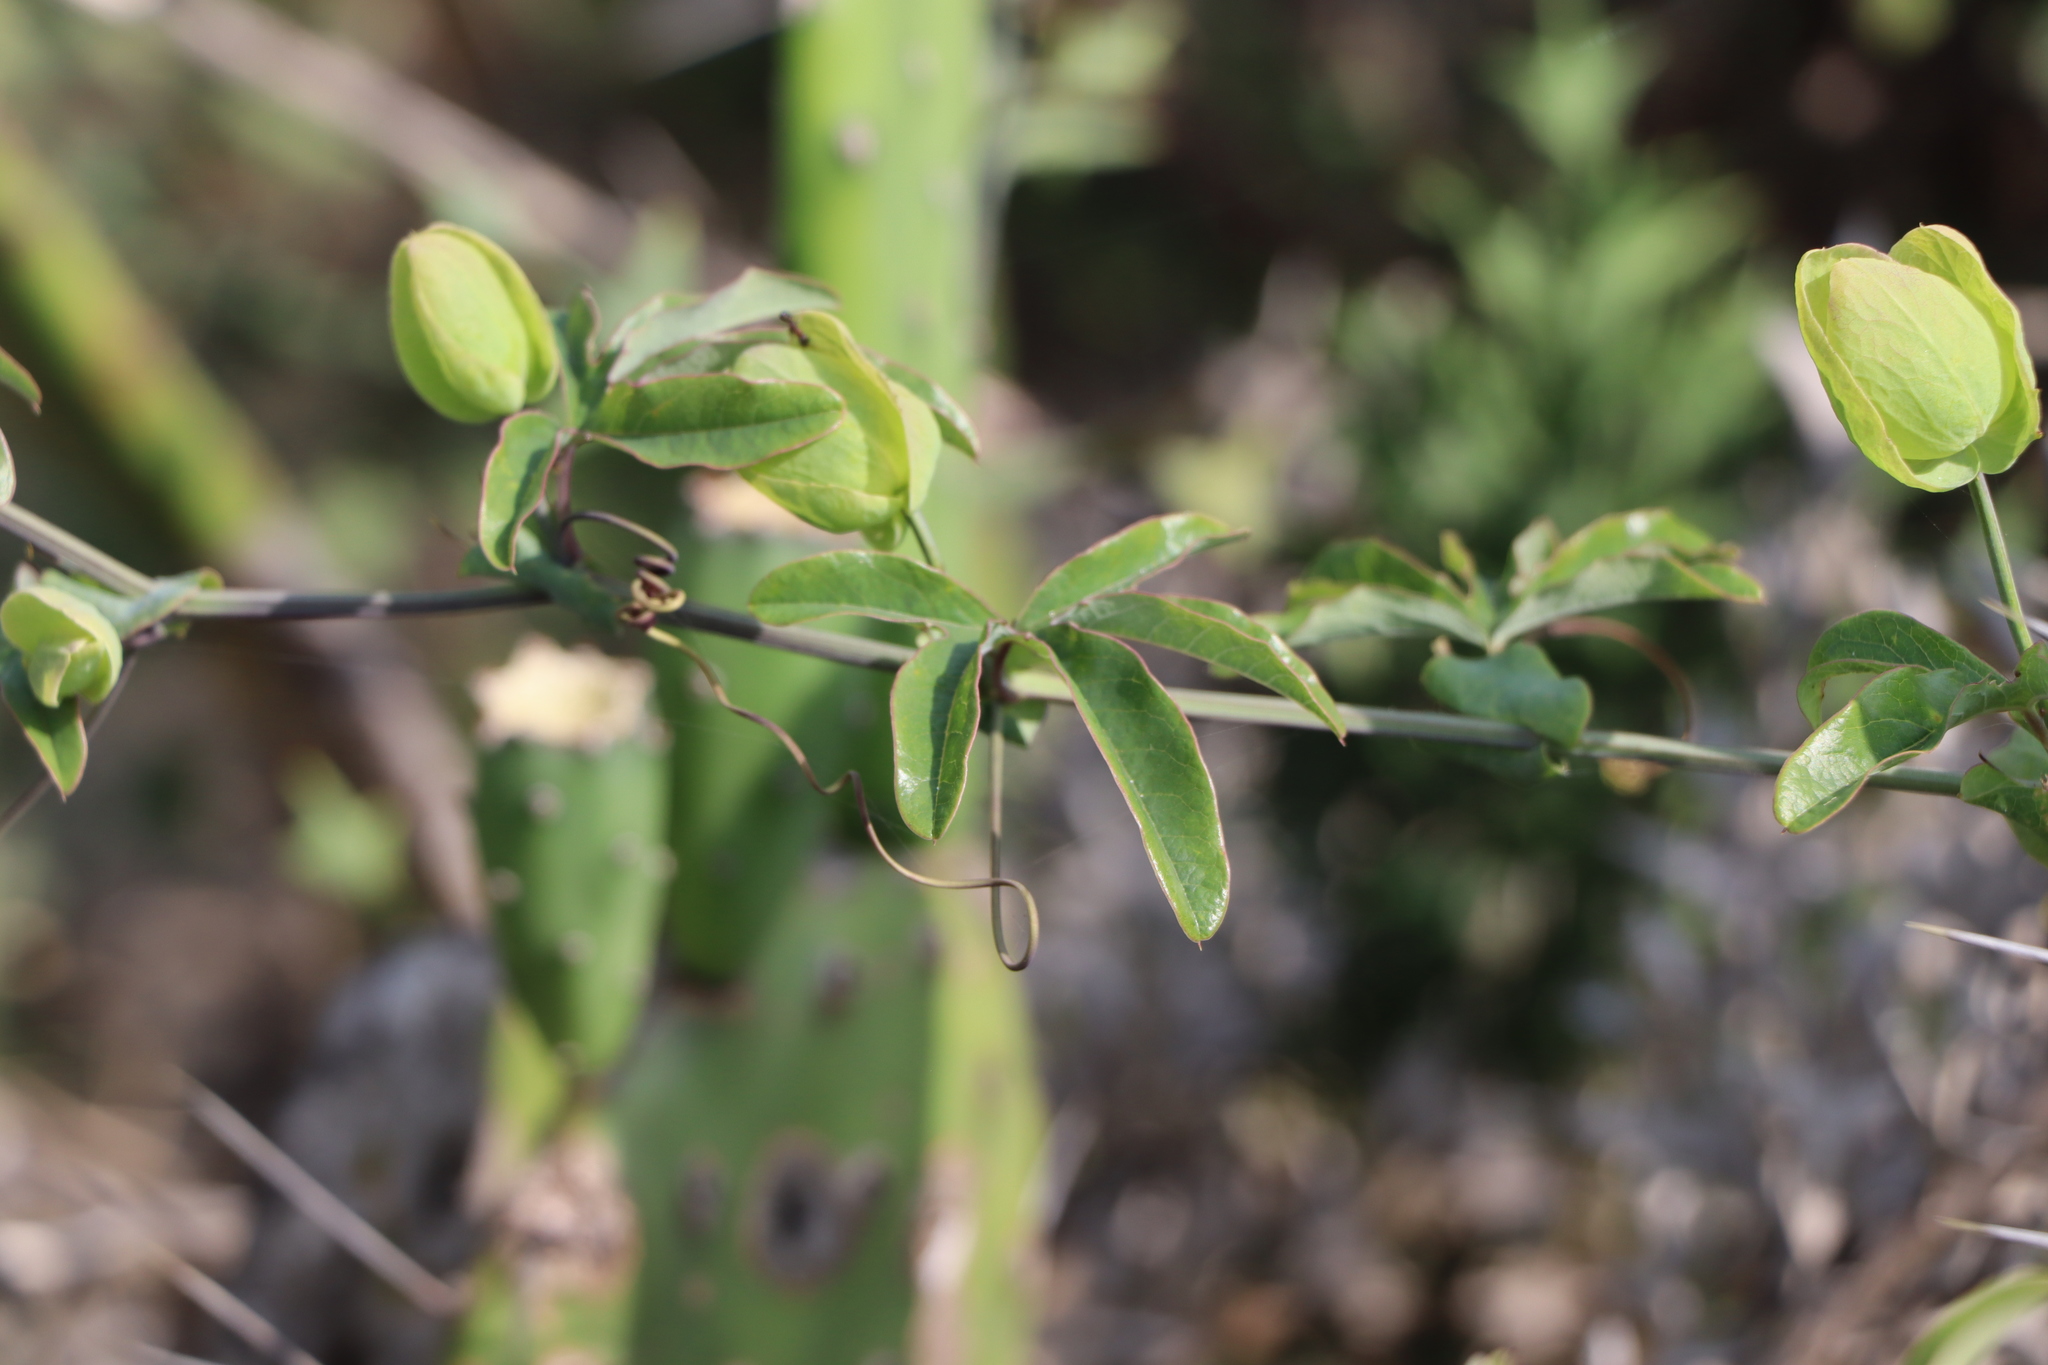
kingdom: Plantae
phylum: Tracheophyta
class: Magnoliopsida
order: Malpighiales
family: Passifloraceae
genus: Passiflora
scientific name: Passiflora caerulea
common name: Blue passionflower
